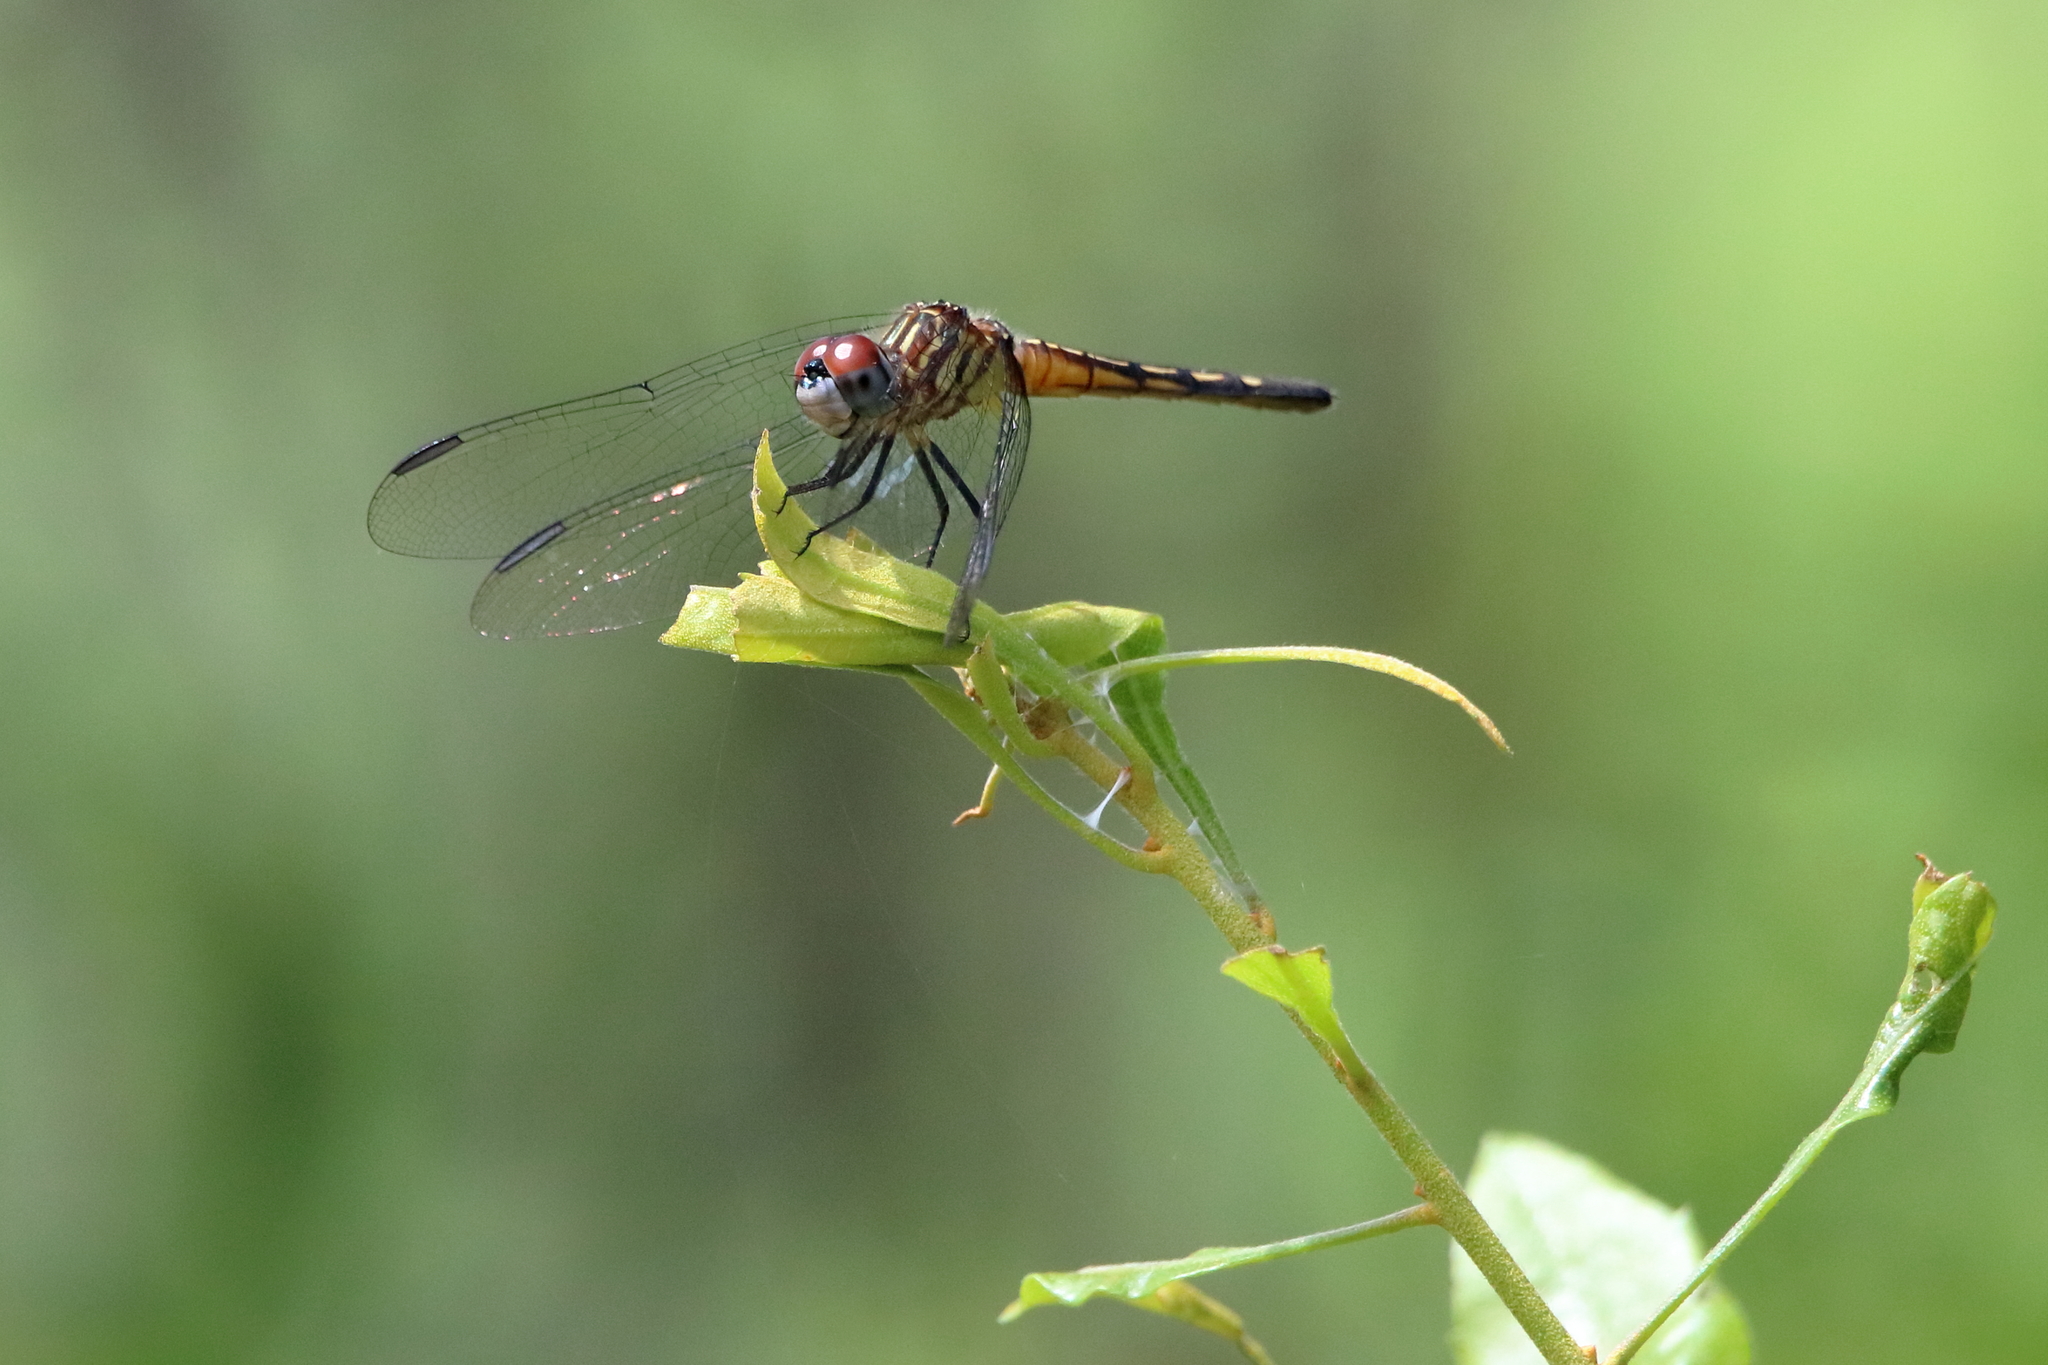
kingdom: Animalia
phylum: Arthropoda
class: Insecta
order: Odonata
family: Libellulidae
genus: Pachydiplax
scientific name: Pachydiplax longipennis
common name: Blue dasher
